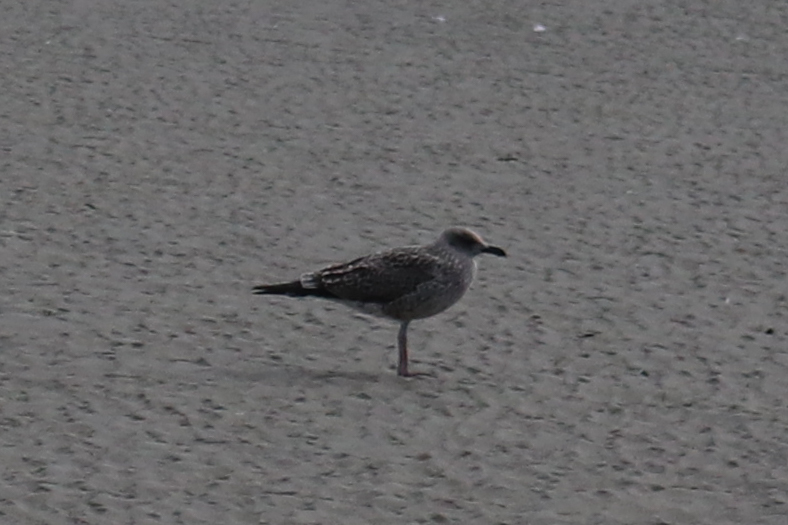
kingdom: Animalia
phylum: Chordata
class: Aves
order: Charadriiformes
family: Laridae
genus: Larus
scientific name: Larus fuscus
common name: Lesser black-backed gull
